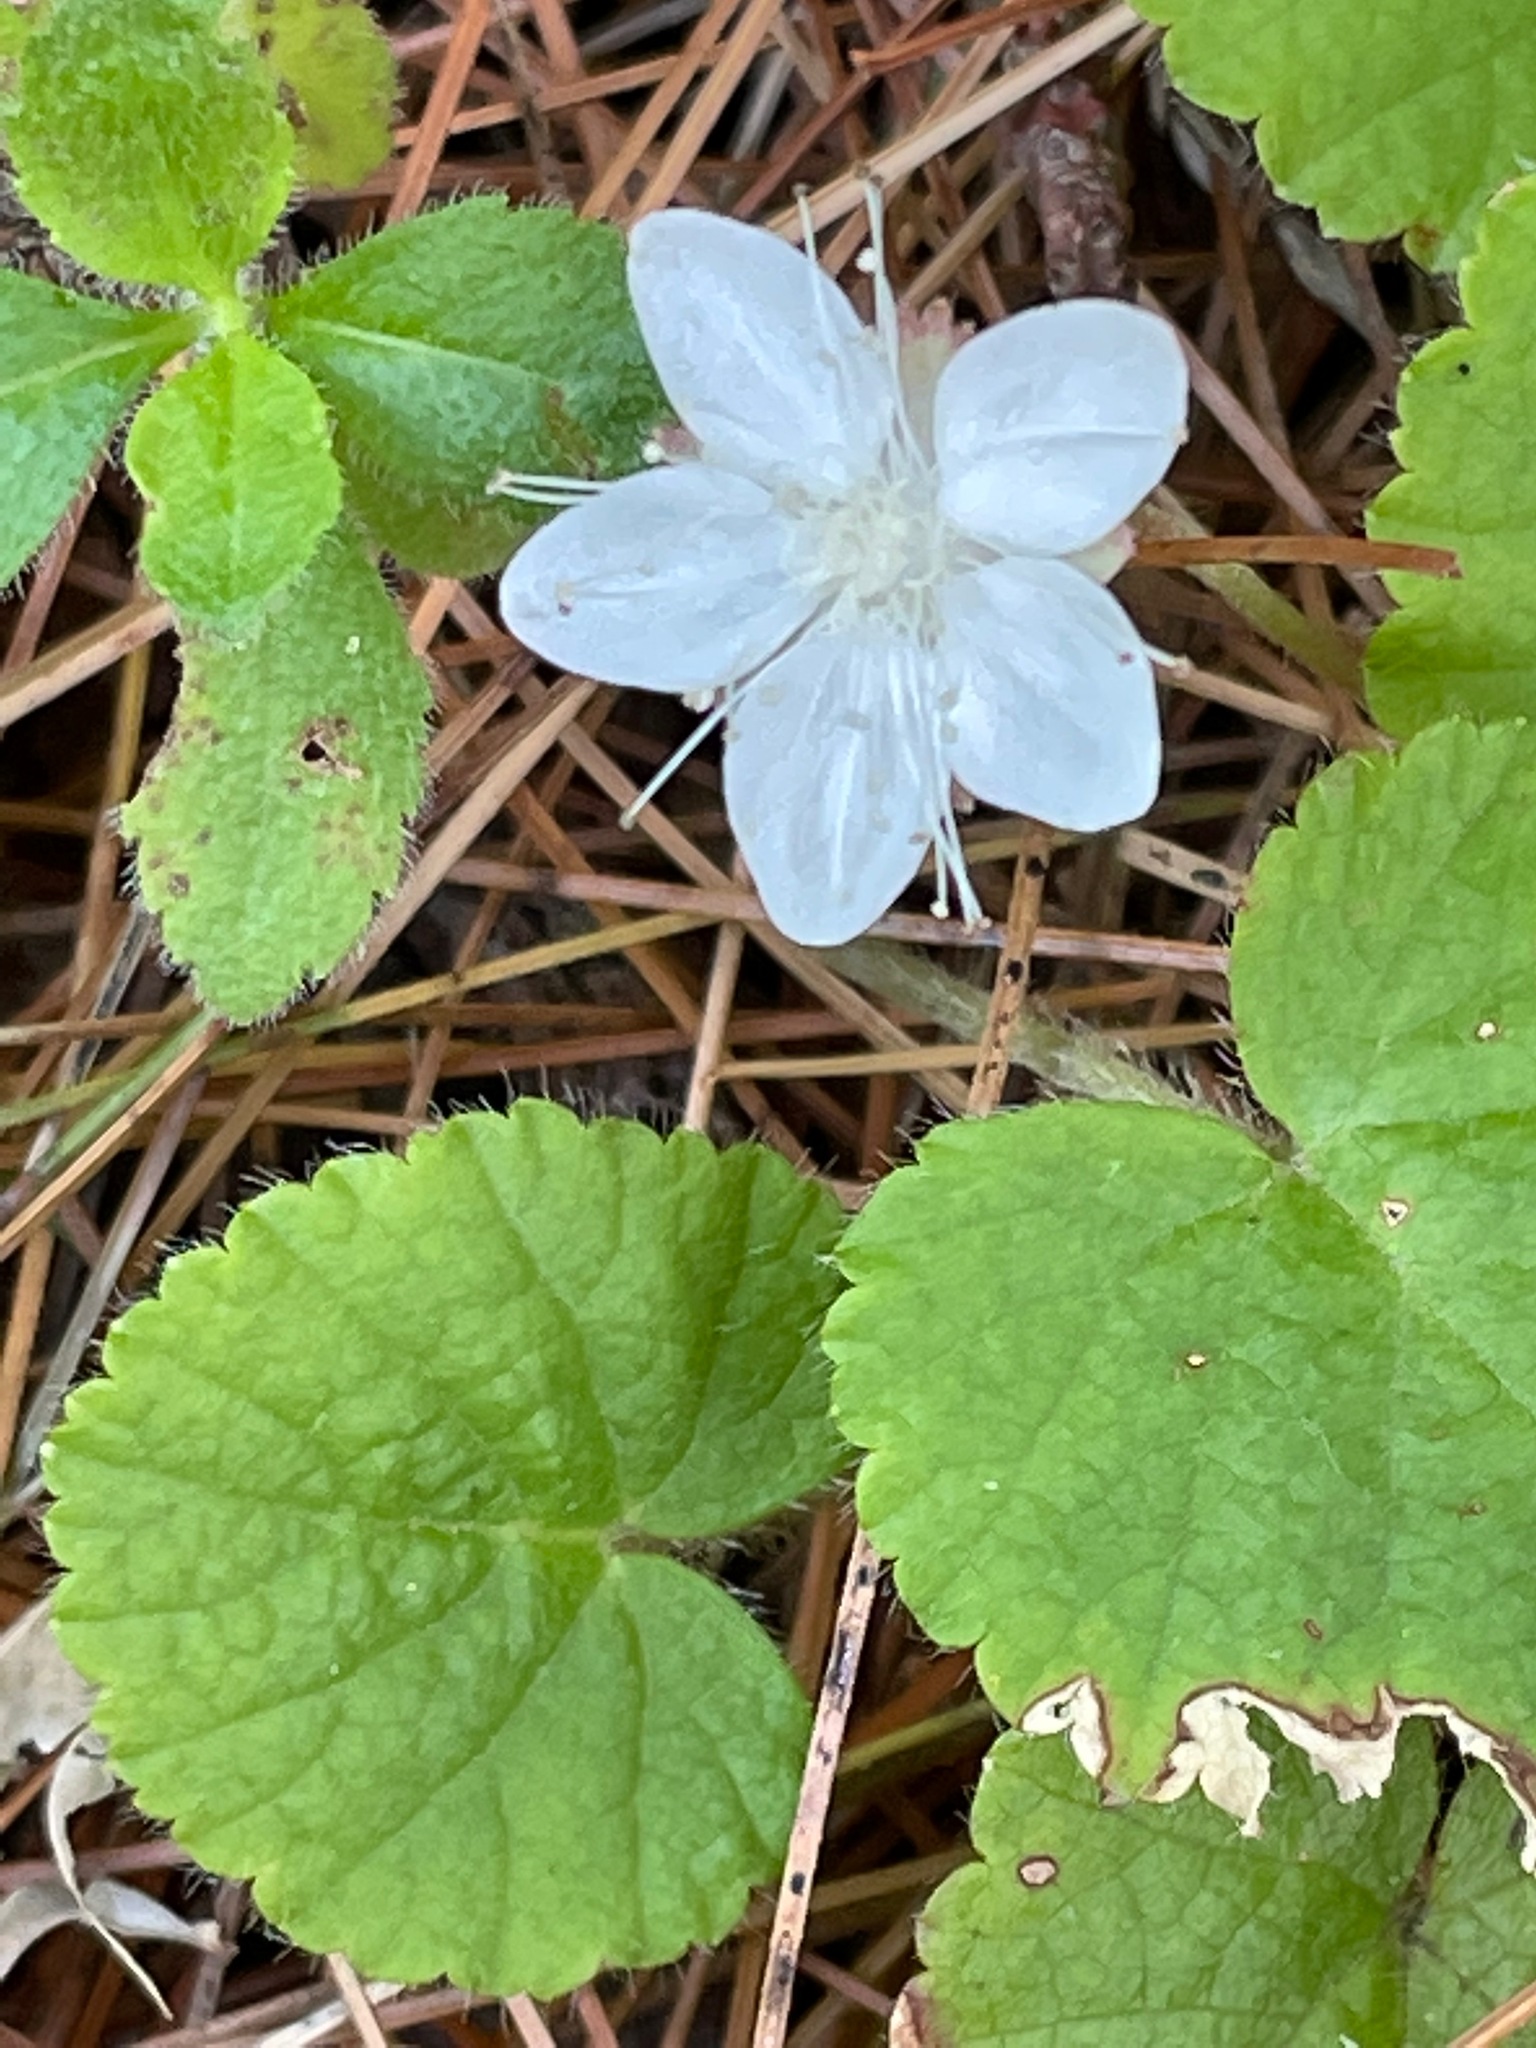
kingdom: Plantae
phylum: Tracheophyta
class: Magnoliopsida
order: Rosales
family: Rosaceae
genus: Dalibarda
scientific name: Dalibarda repens
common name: Dewdrop
